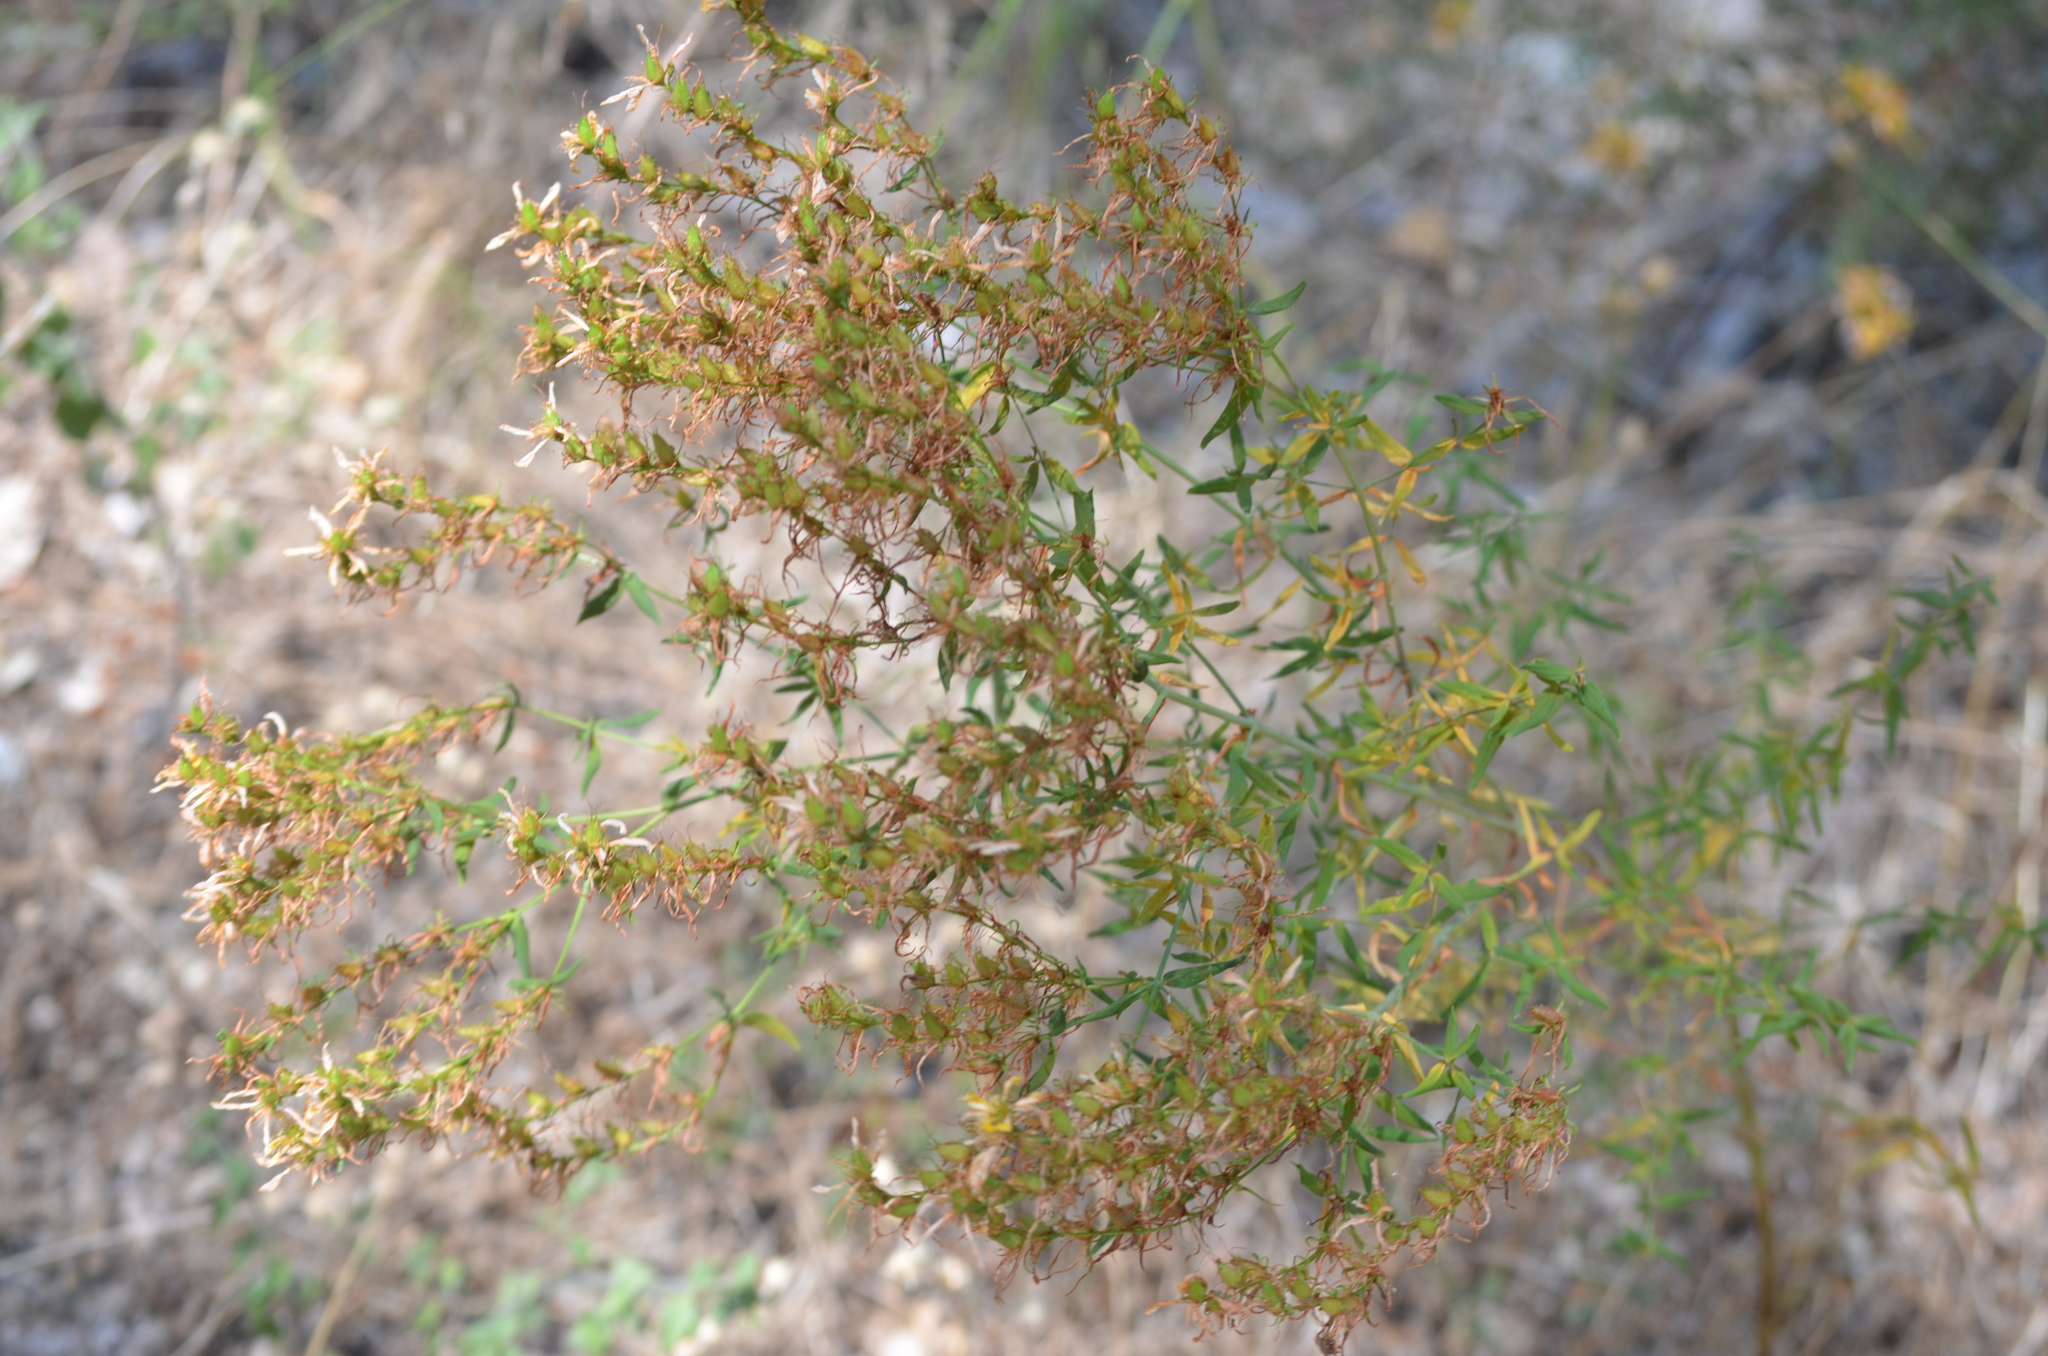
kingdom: Plantae
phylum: Tracheophyta
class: Magnoliopsida
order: Malpighiales
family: Hypericaceae
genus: Hypericum
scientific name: Hypericum perforatum
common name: Common st. johnswort
